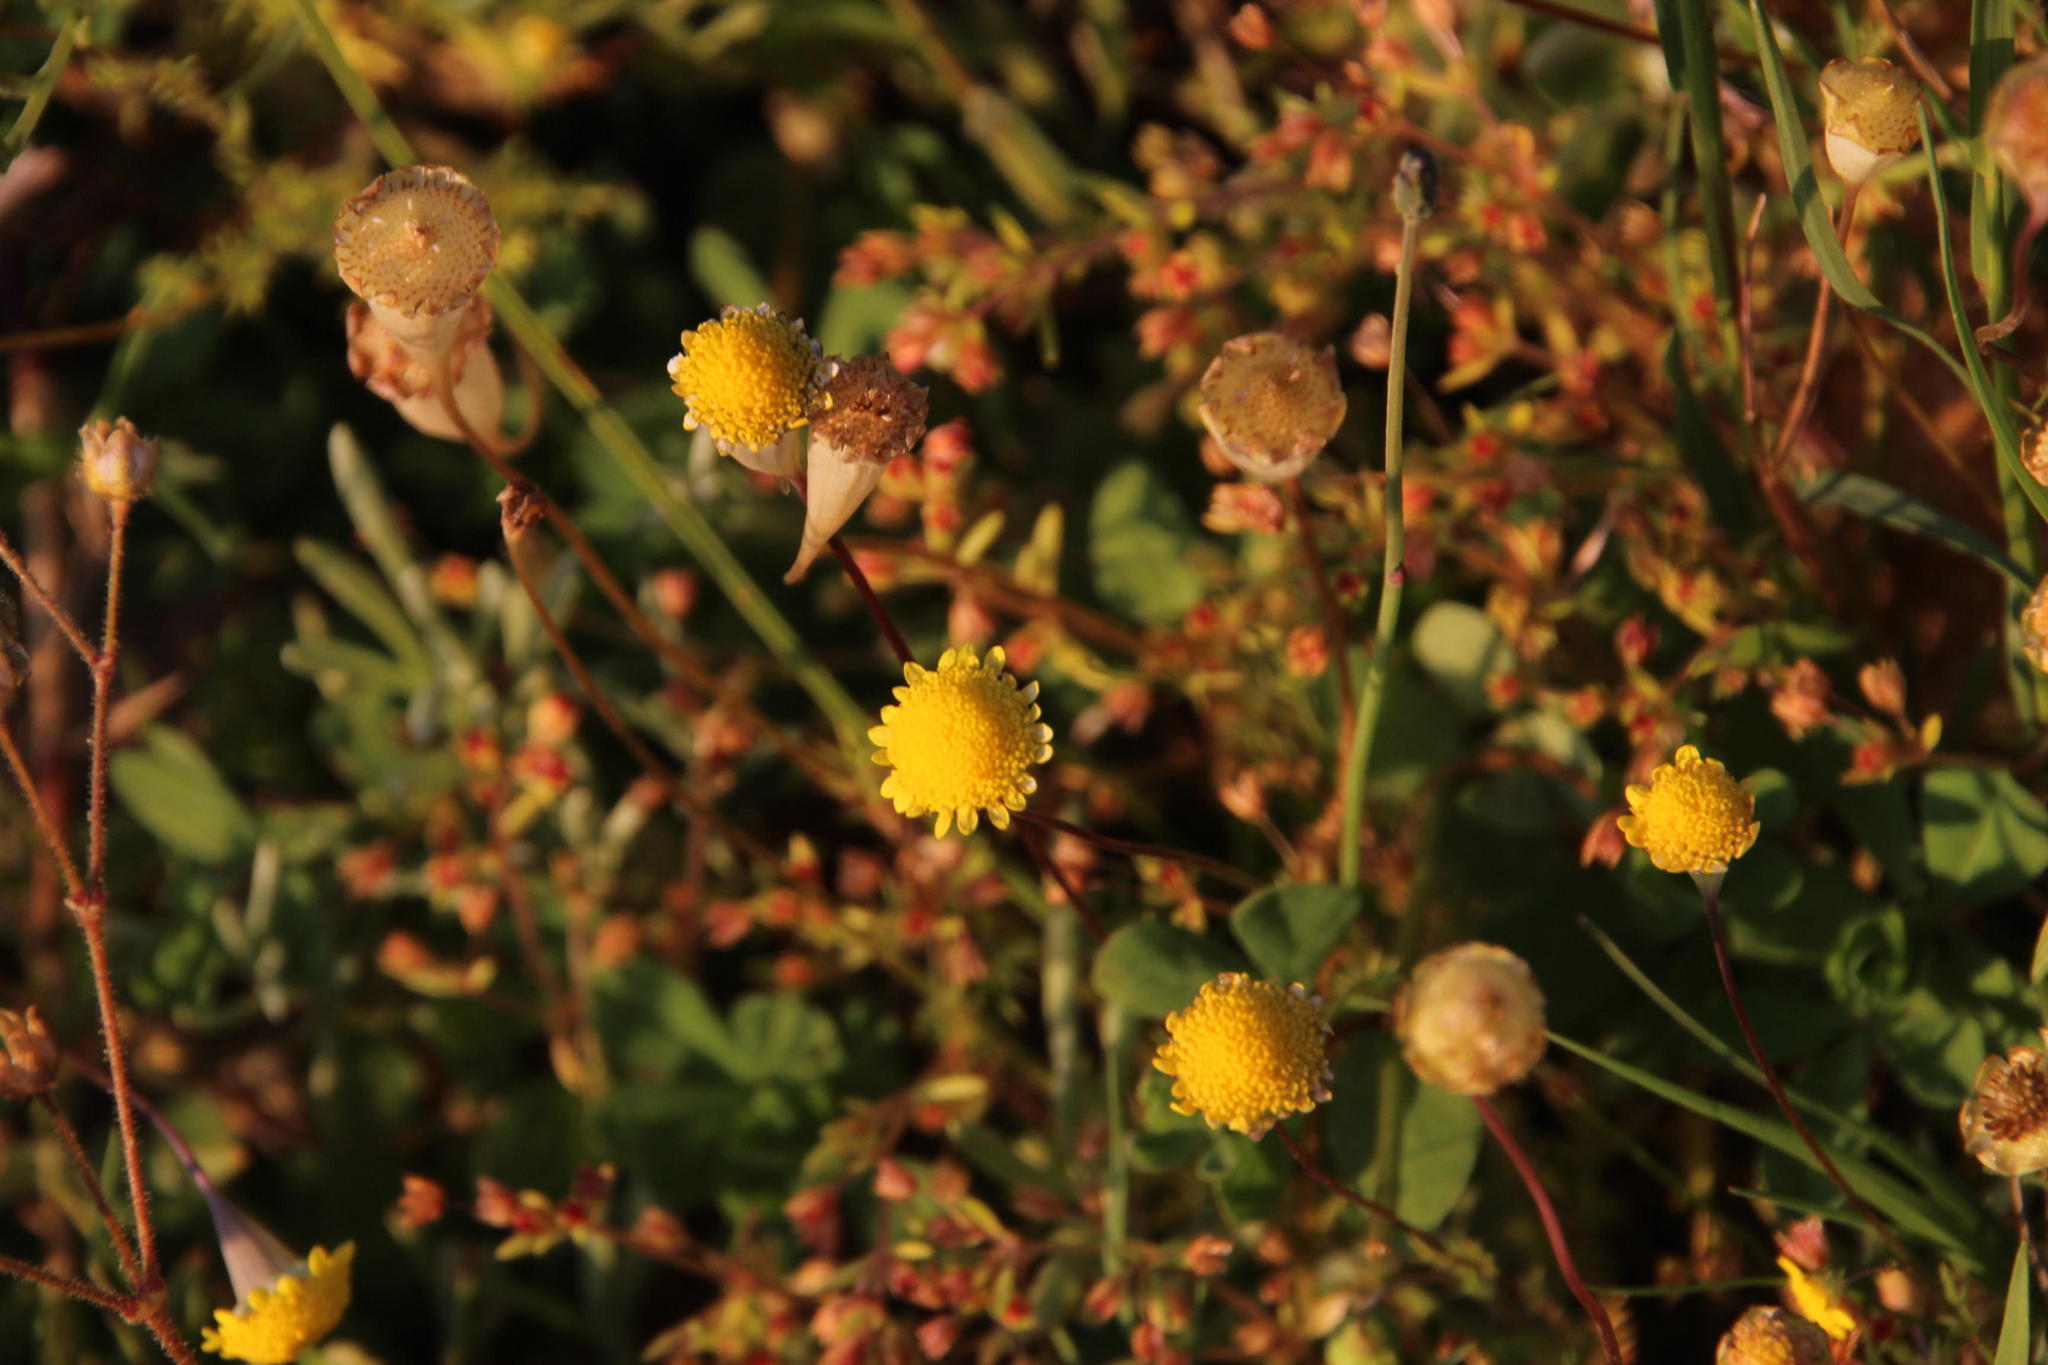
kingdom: Plantae
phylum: Tracheophyta
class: Magnoliopsida
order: Asterales
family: Asteraceae
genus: Cotula
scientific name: Cotula pruinosa
